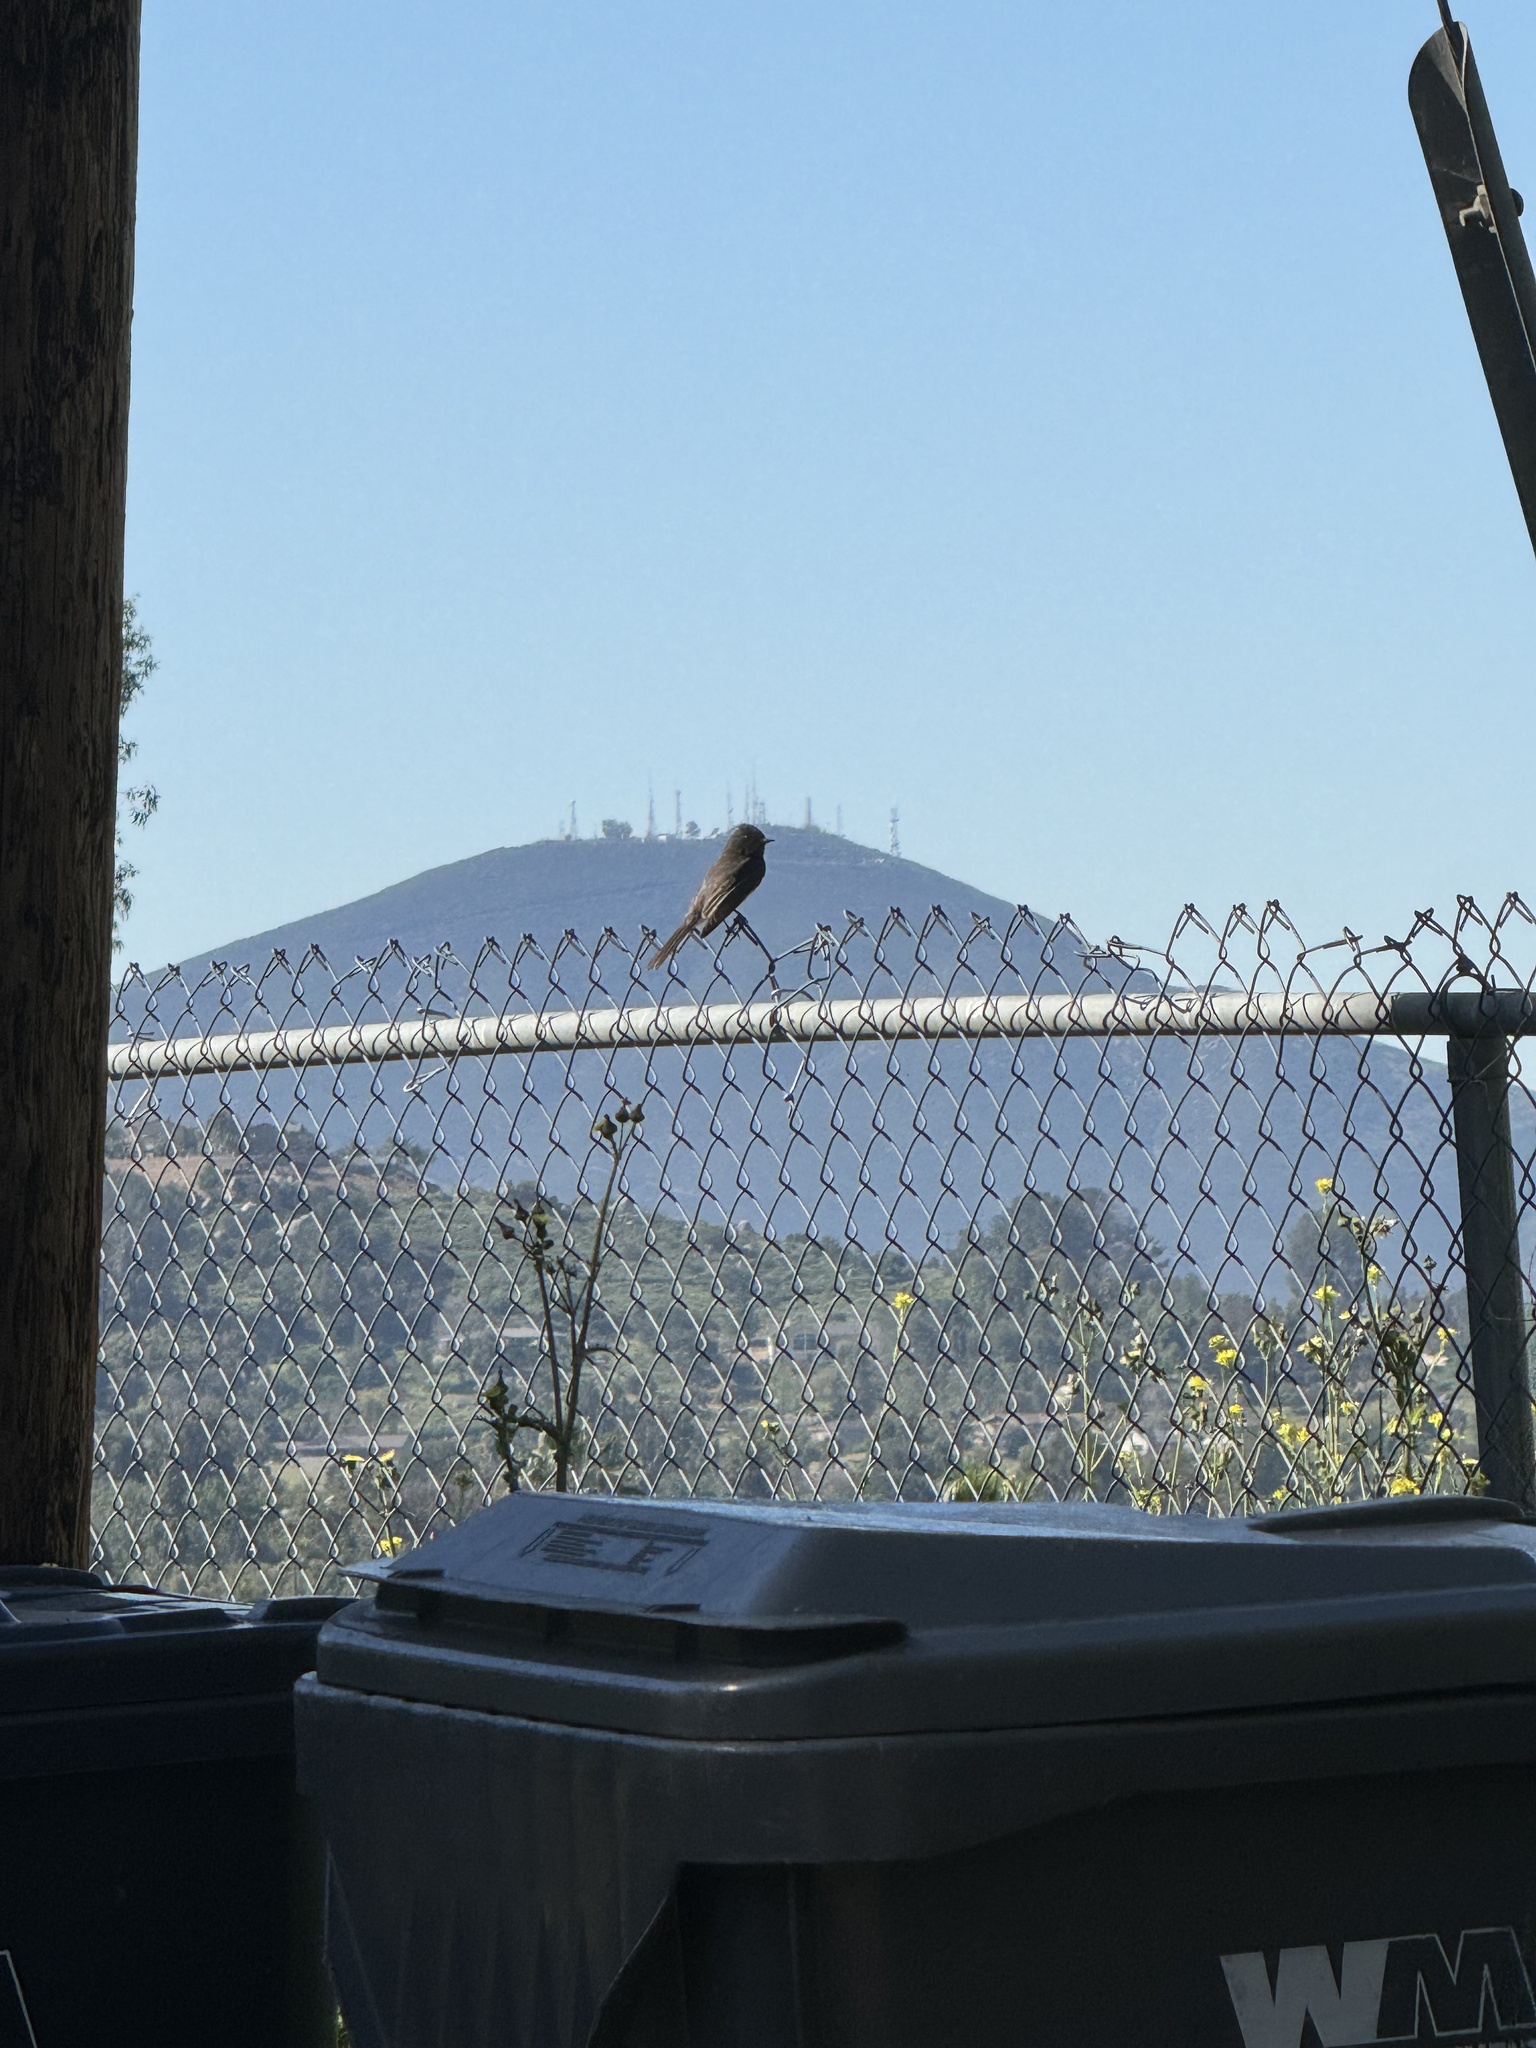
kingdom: Animalia
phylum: Chordata
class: Aves
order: Passeriformes
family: Tyrannidae
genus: Sayornis
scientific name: Sayornis nigricans
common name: Black phoebe
